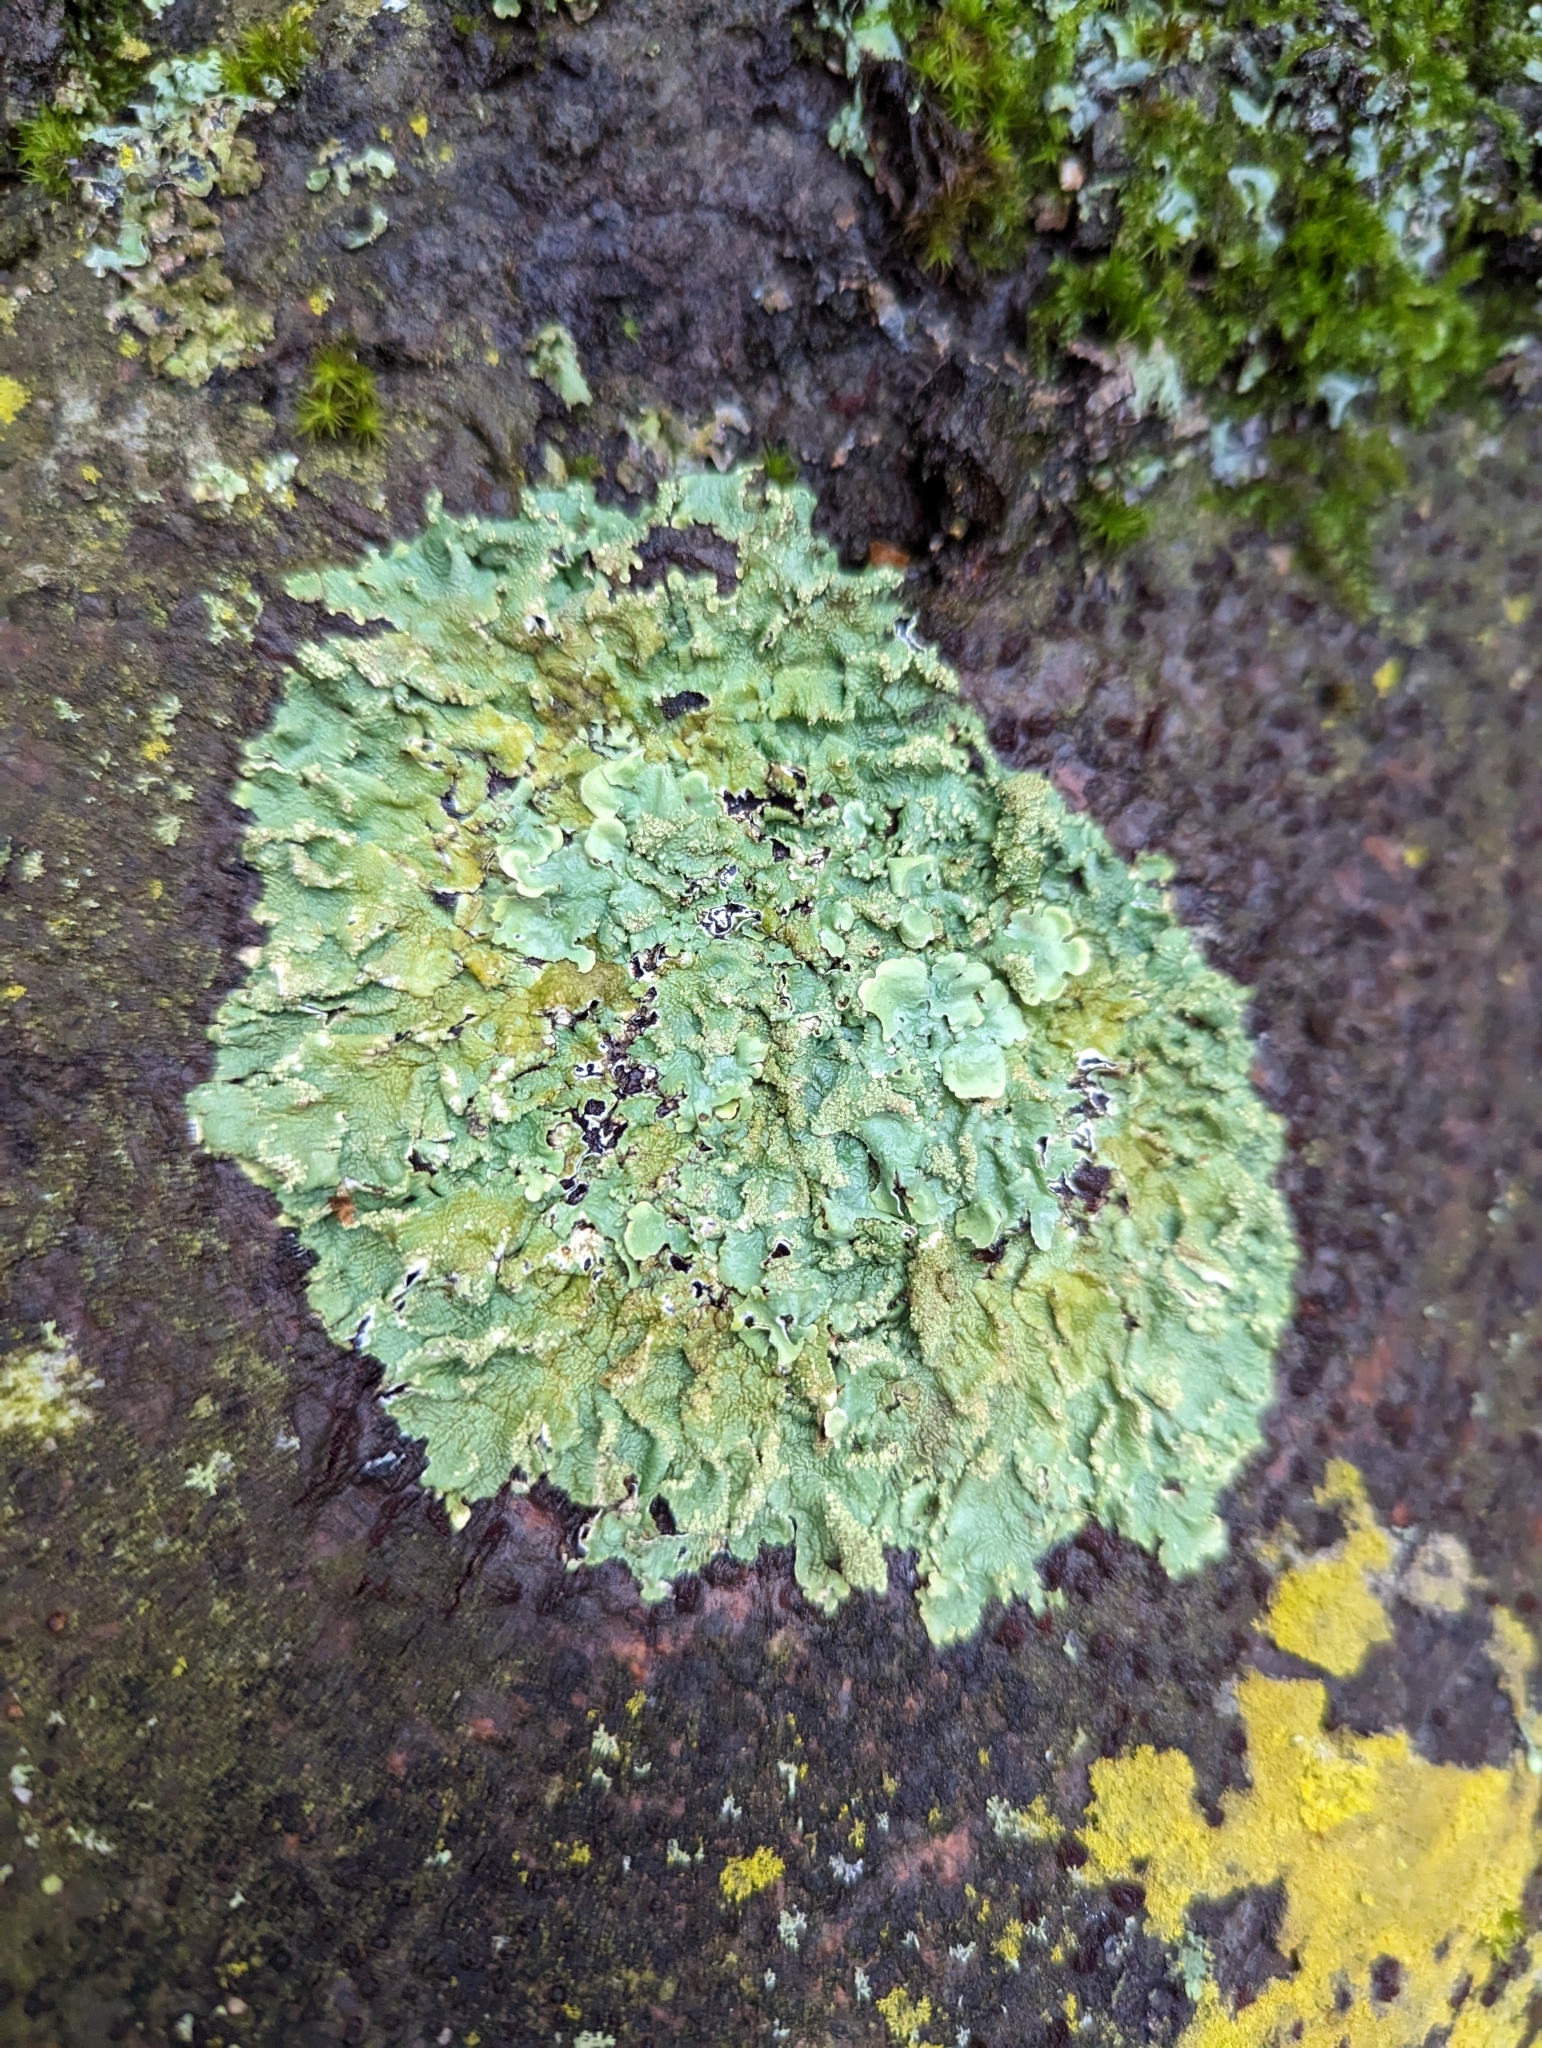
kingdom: Fungi
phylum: Ascomycota
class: Lecanoromycetes
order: Lecanorales
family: Parmeliaceae
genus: Flavoparmelia
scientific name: Flavoparmelia caperata
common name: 40-mile per hour lichen
